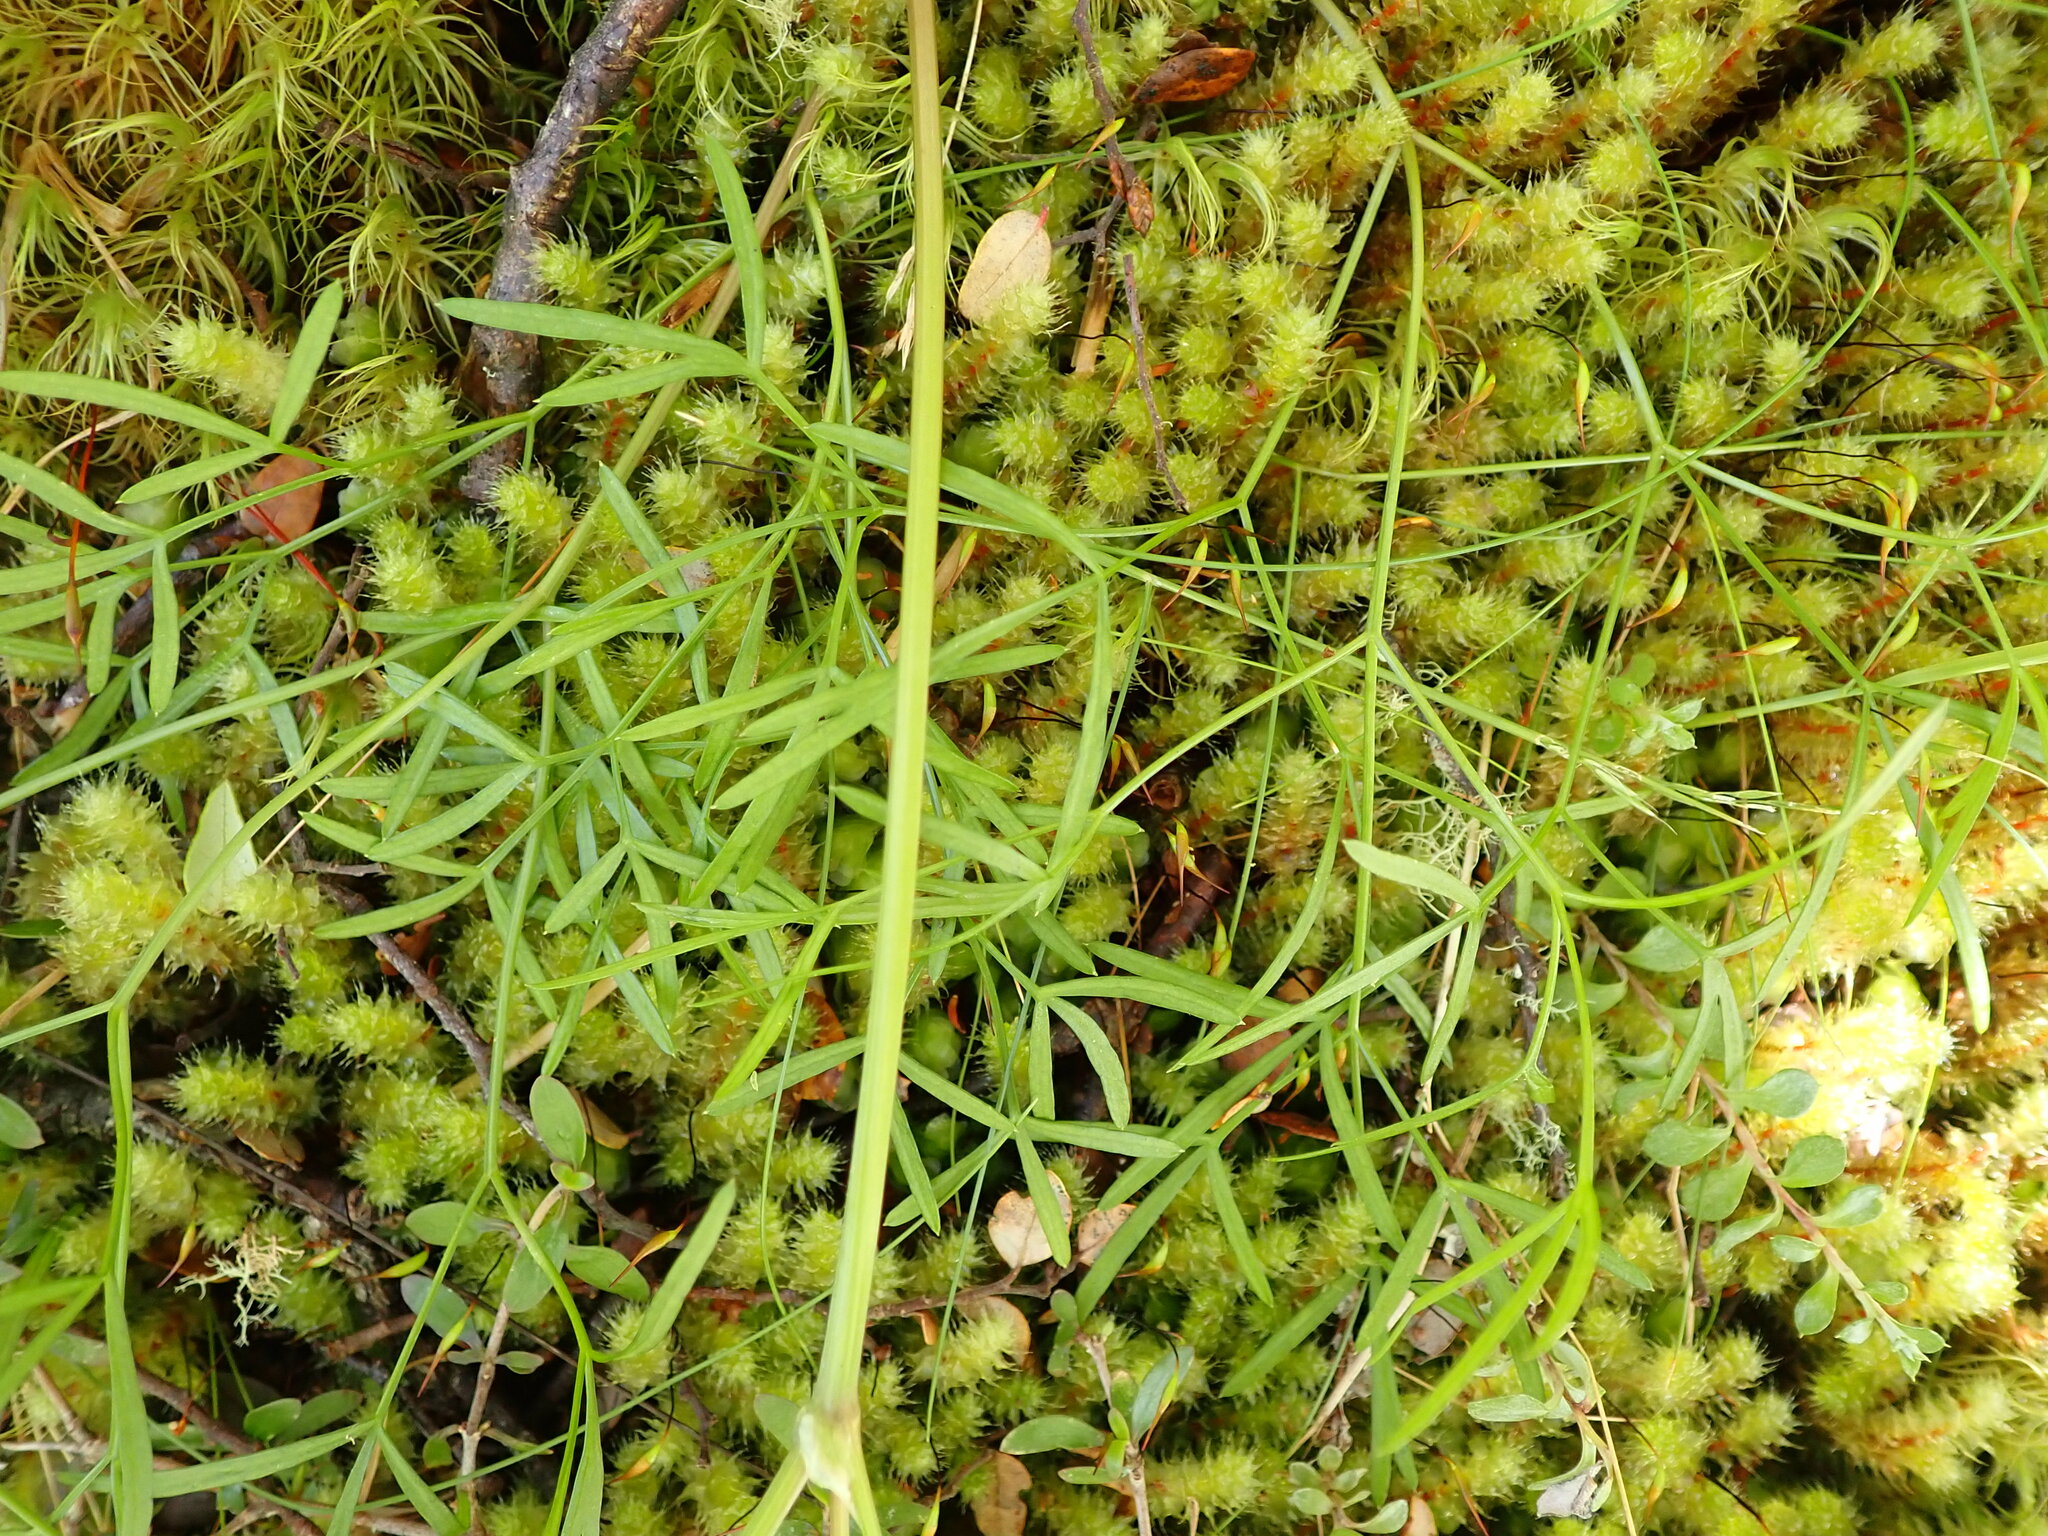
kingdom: Plantae
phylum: Tracheophyta
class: Magnoliopsida
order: Apiales
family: Apiaceae
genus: Anisotome
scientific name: Anisotome filifolia
